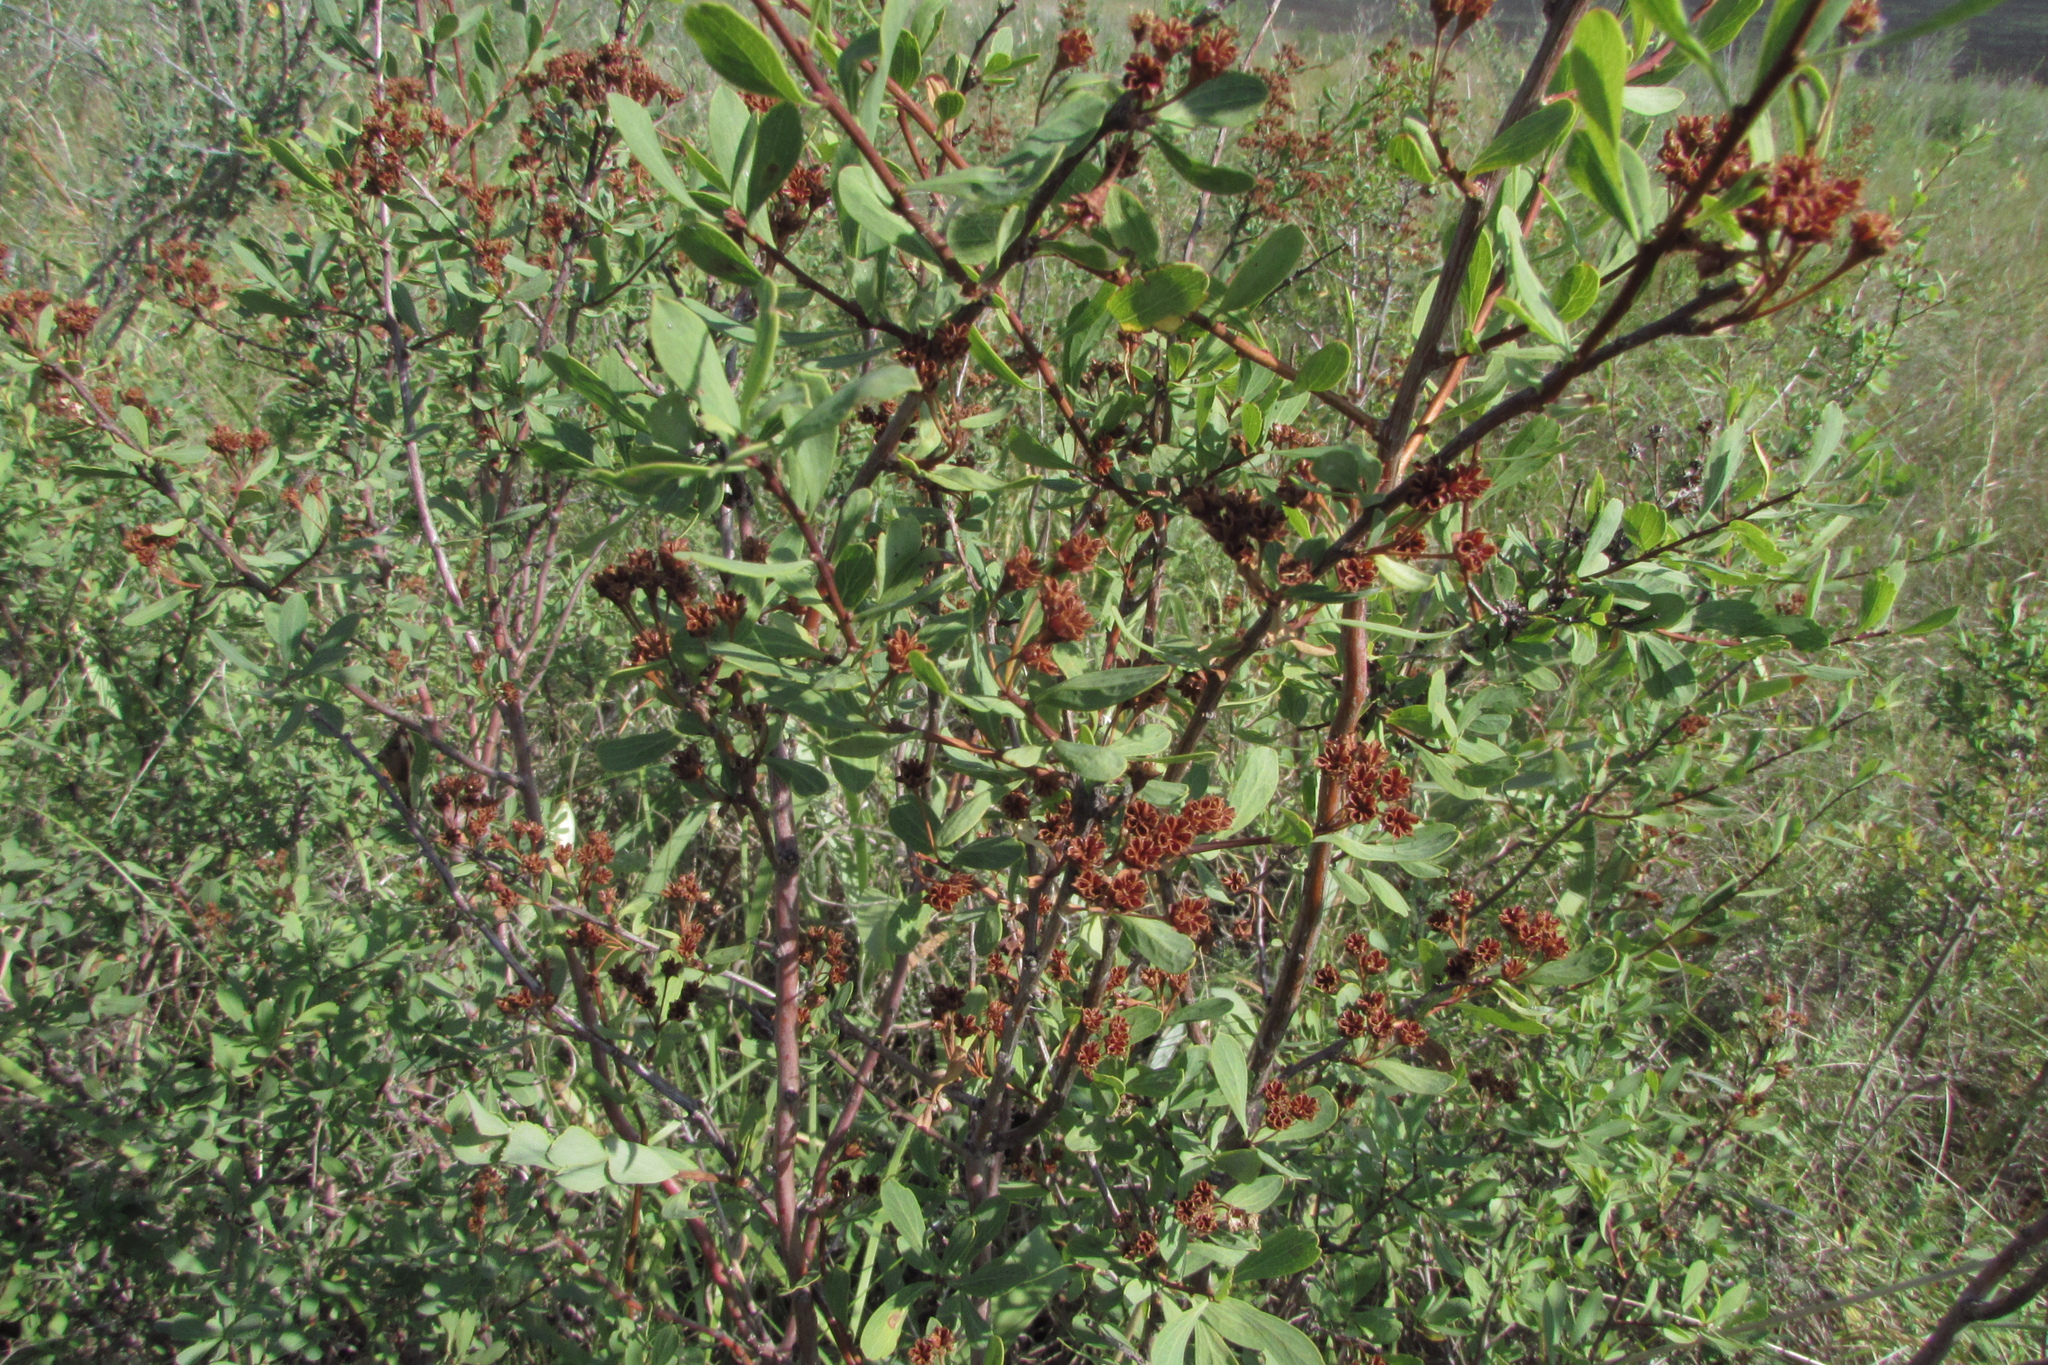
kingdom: Plantae
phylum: Tracheophyta
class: Magnoliopsida
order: Rosales
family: Rosaceae
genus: Spiraea
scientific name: Spiraea crenata
